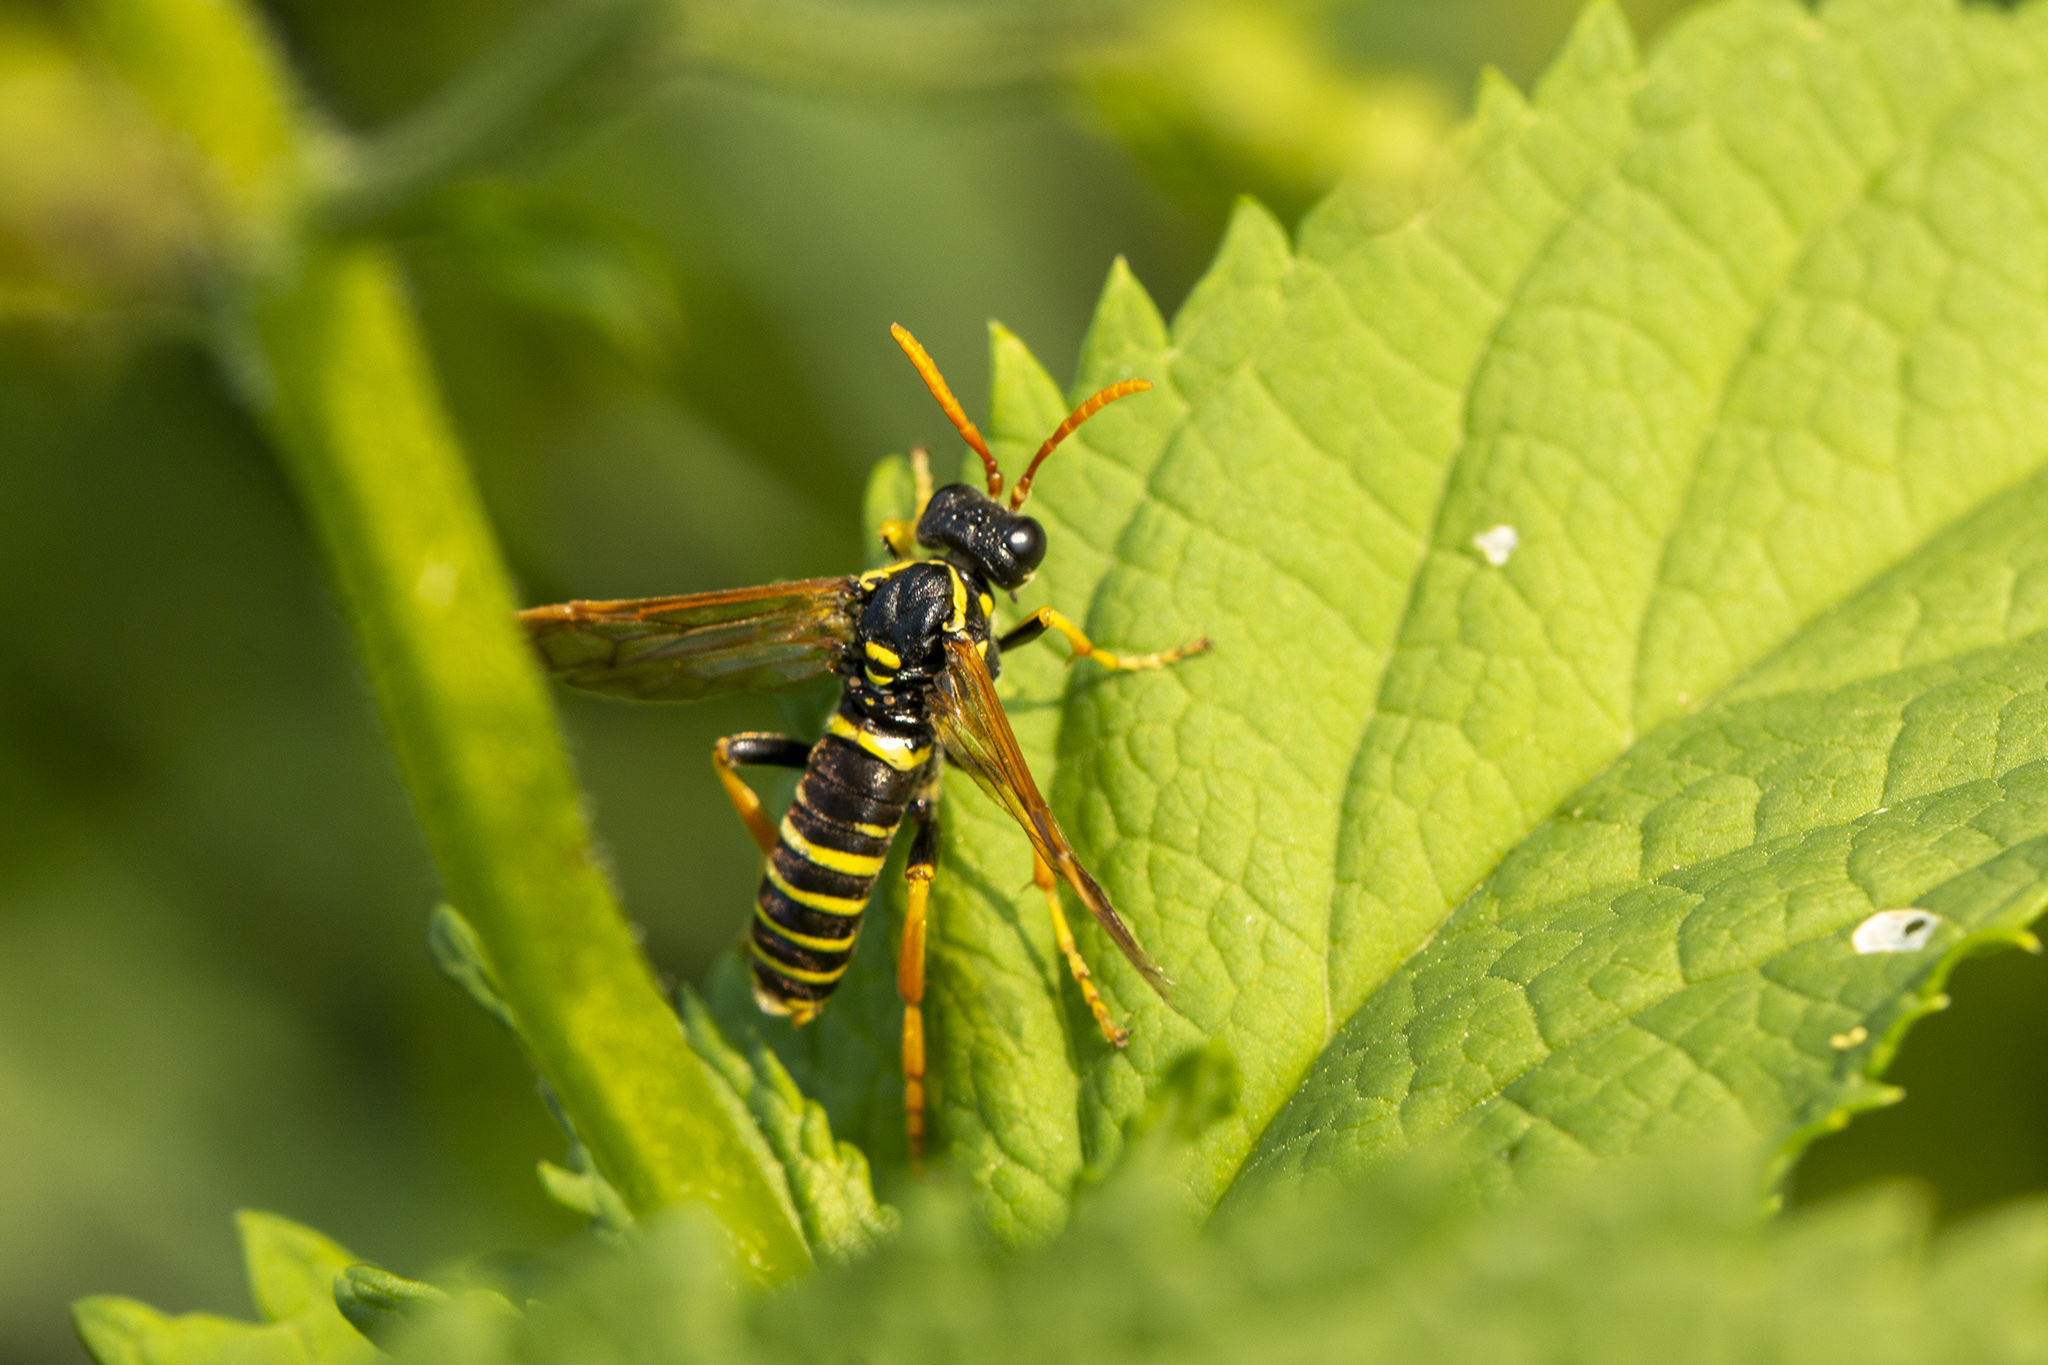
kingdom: Animalia
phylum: Arthropoda
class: Insecta
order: Hymenoptera
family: Tenthredinidae
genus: Tenthredo
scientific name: Tenthredo scrophulariae
